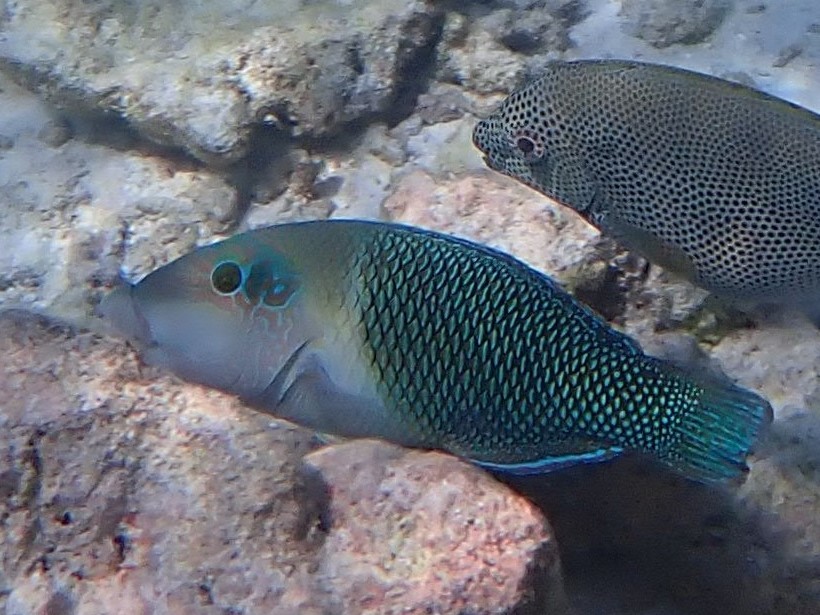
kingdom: Animalia
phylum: Chordata
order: Perciformes
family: Labridae
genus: Hemigymnus
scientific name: Hemigymnus melapterus
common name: Blackeye thicklip
